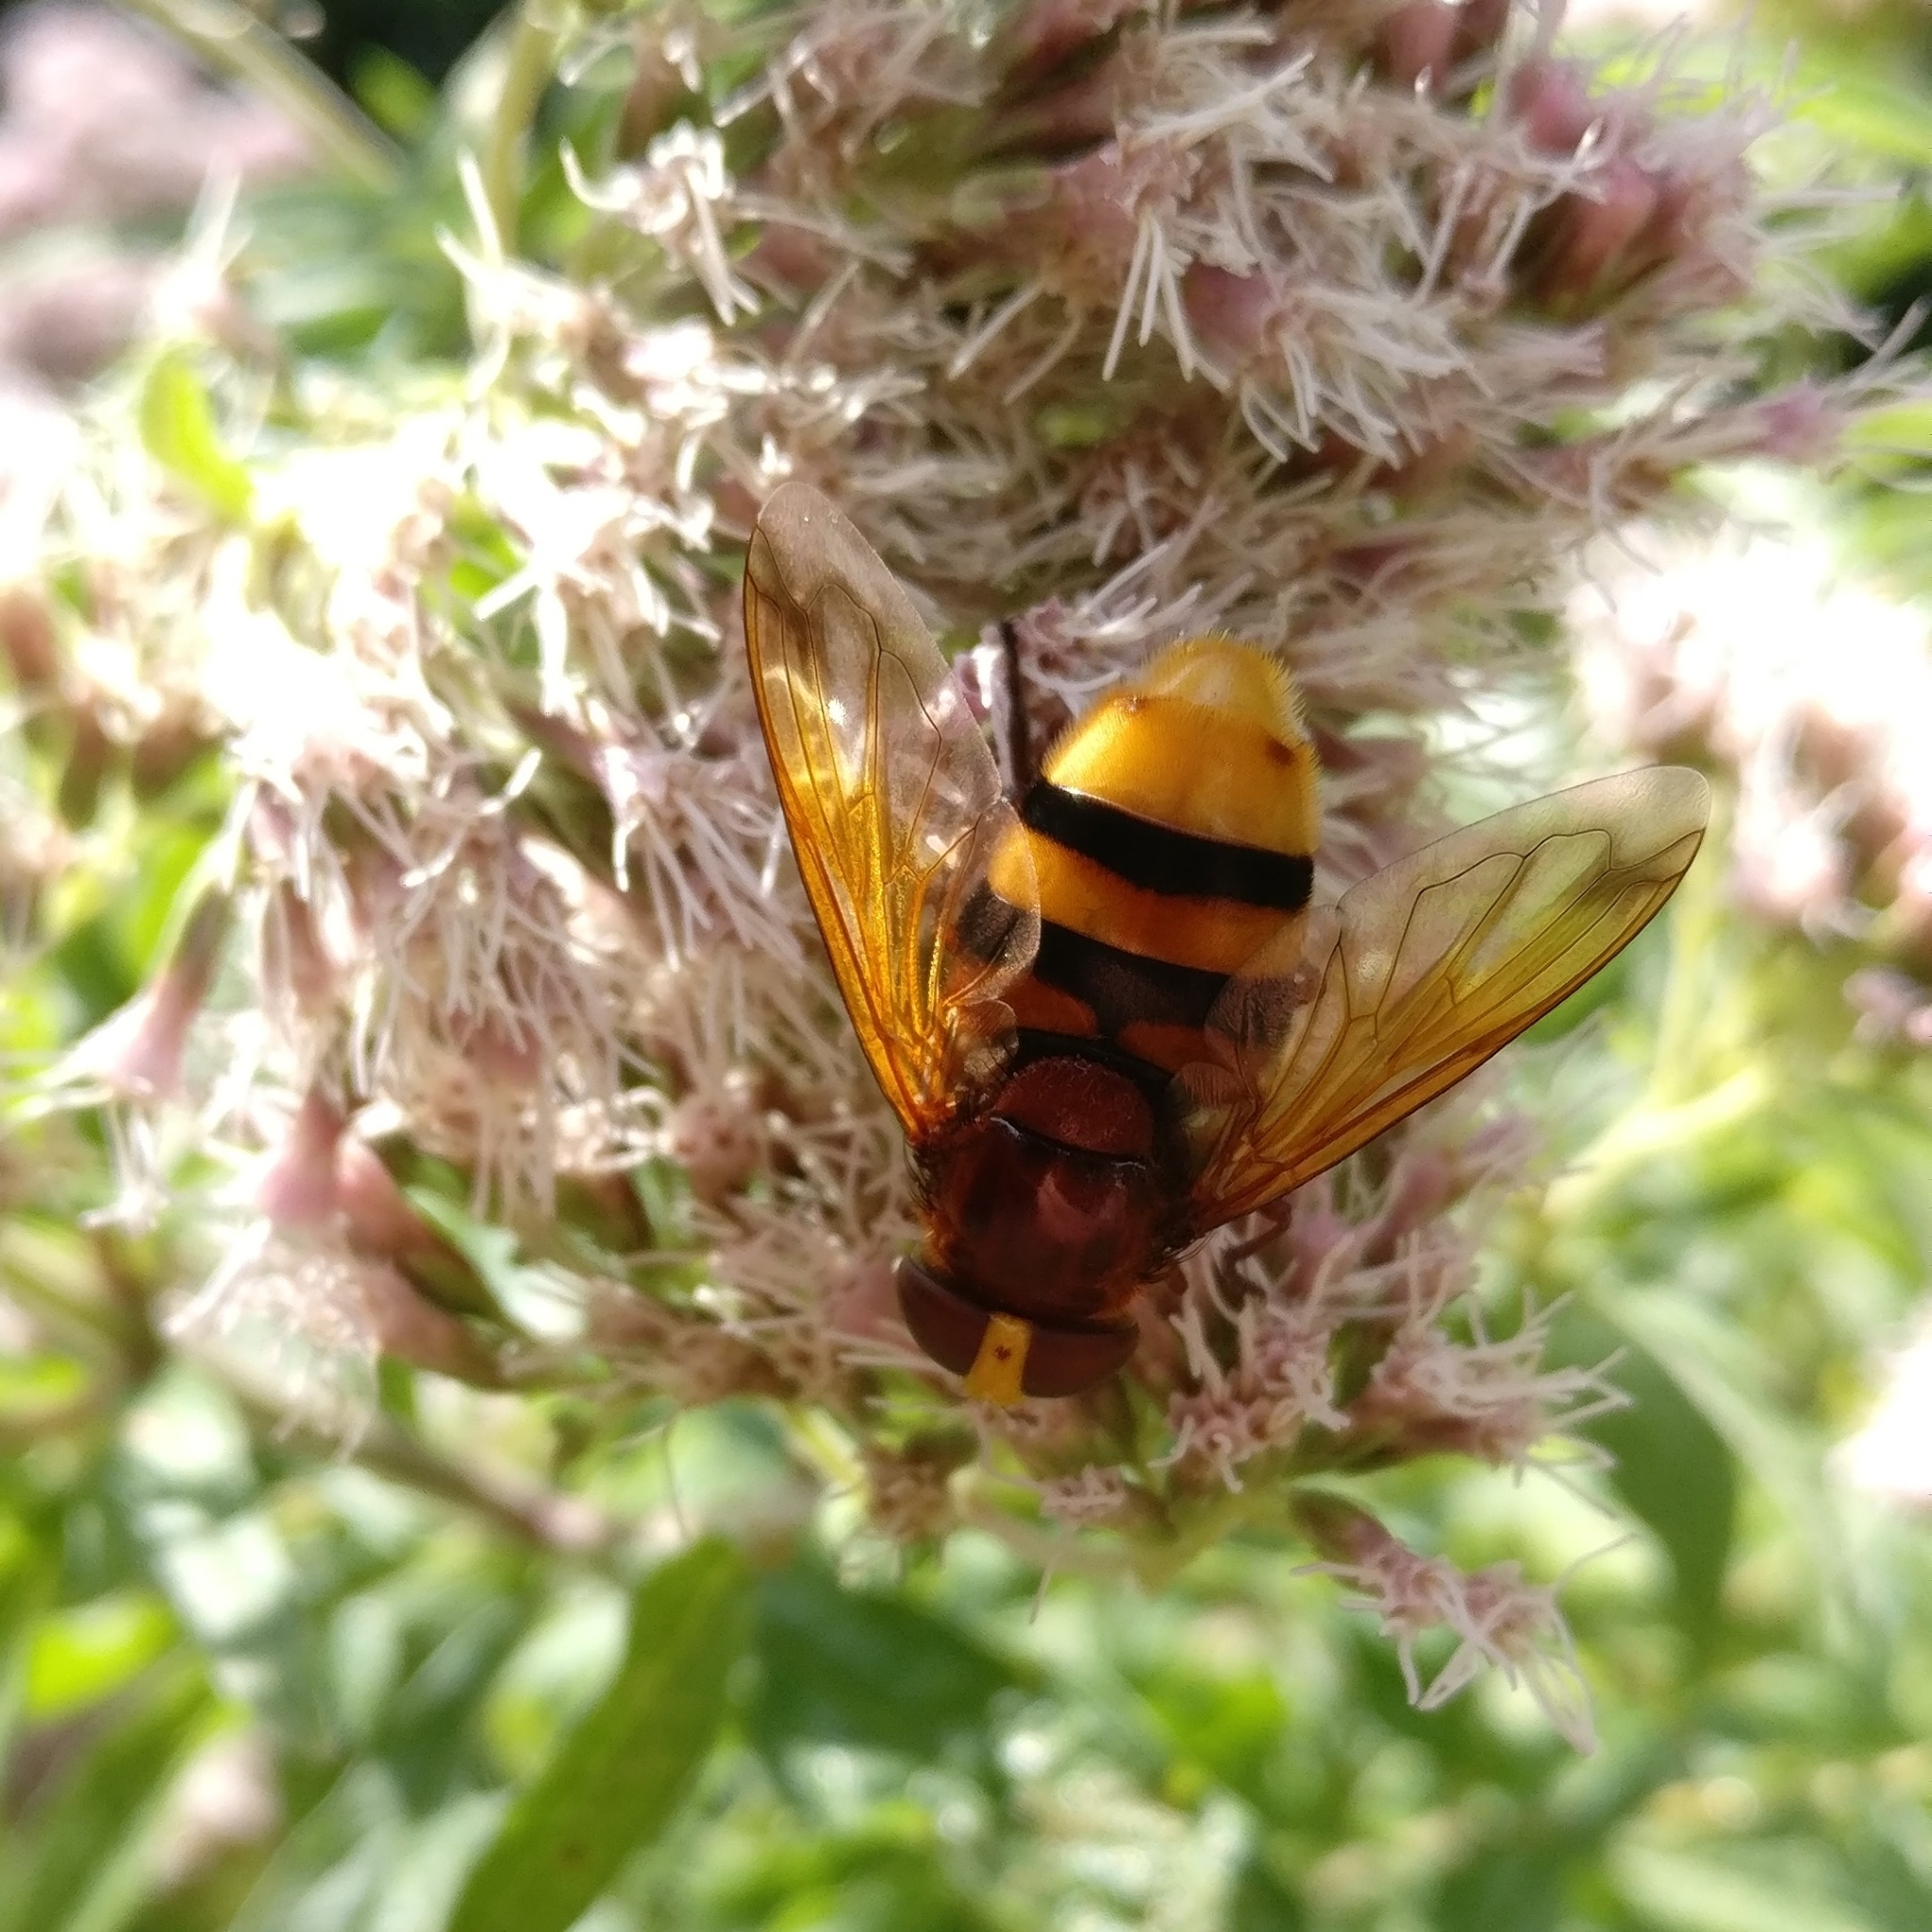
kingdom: Animalia
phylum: Arthropoda
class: Insecta
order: Diptera
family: Syrphidae
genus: Volucella
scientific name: Volucella zonaria
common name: Hornet hoverfly
